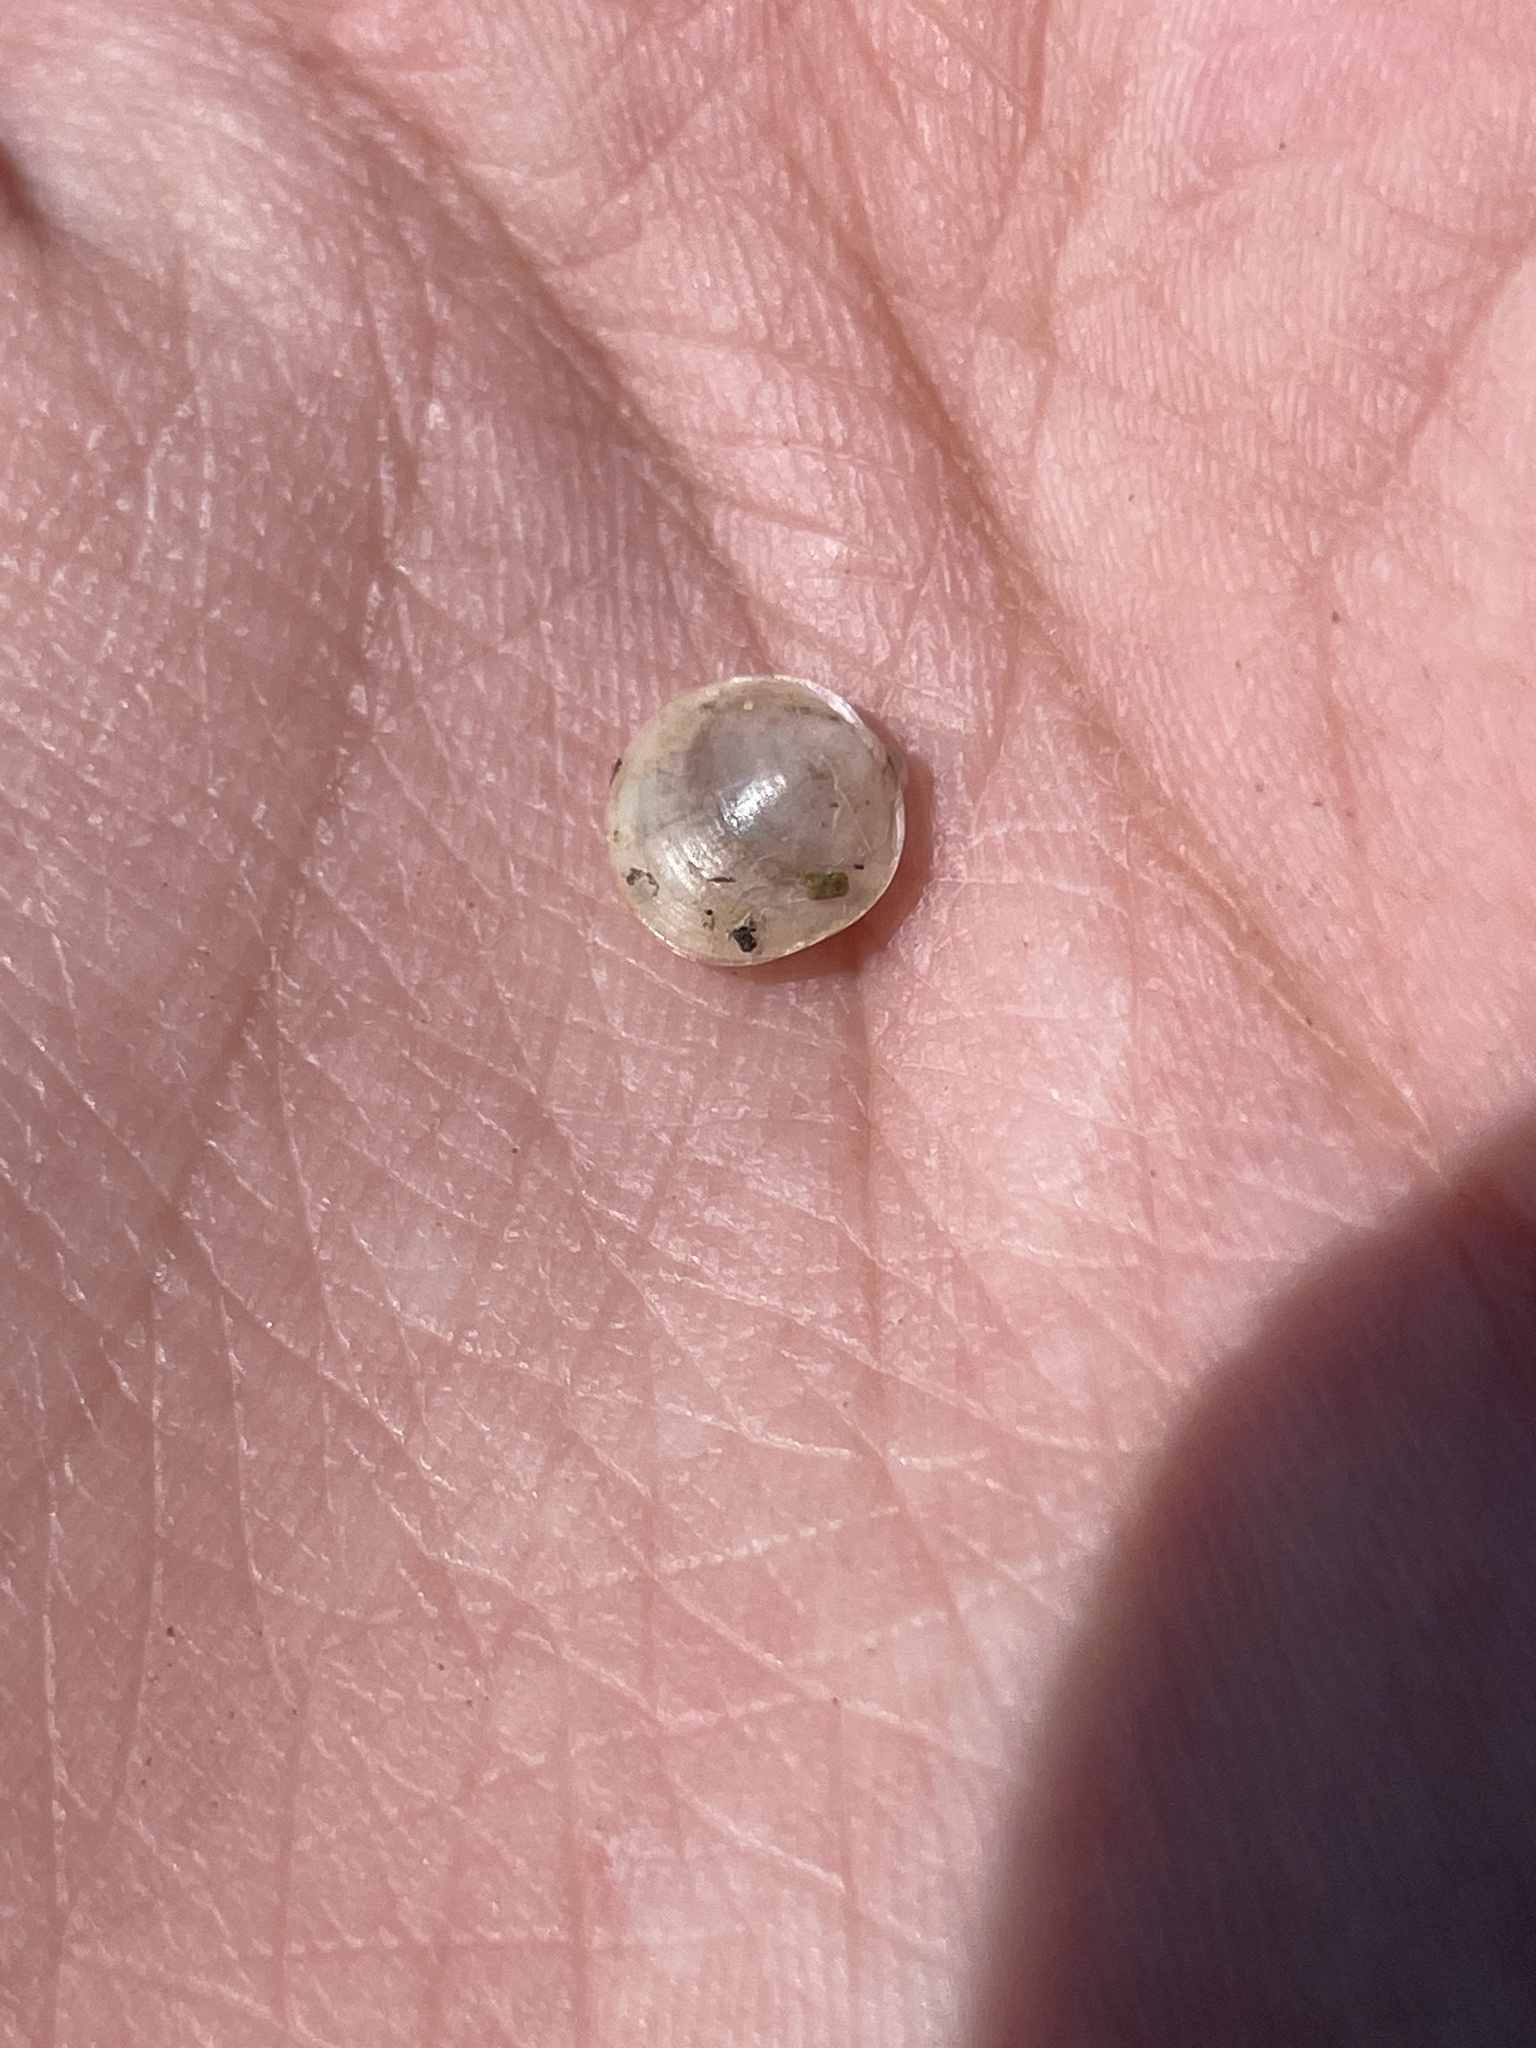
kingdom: Animalia
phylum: Mollusca
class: Bivalvia
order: Sphaeriida
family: Sphaeriidae
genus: Musculium
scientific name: Musculium lacustre
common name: Lake fingernailclam
